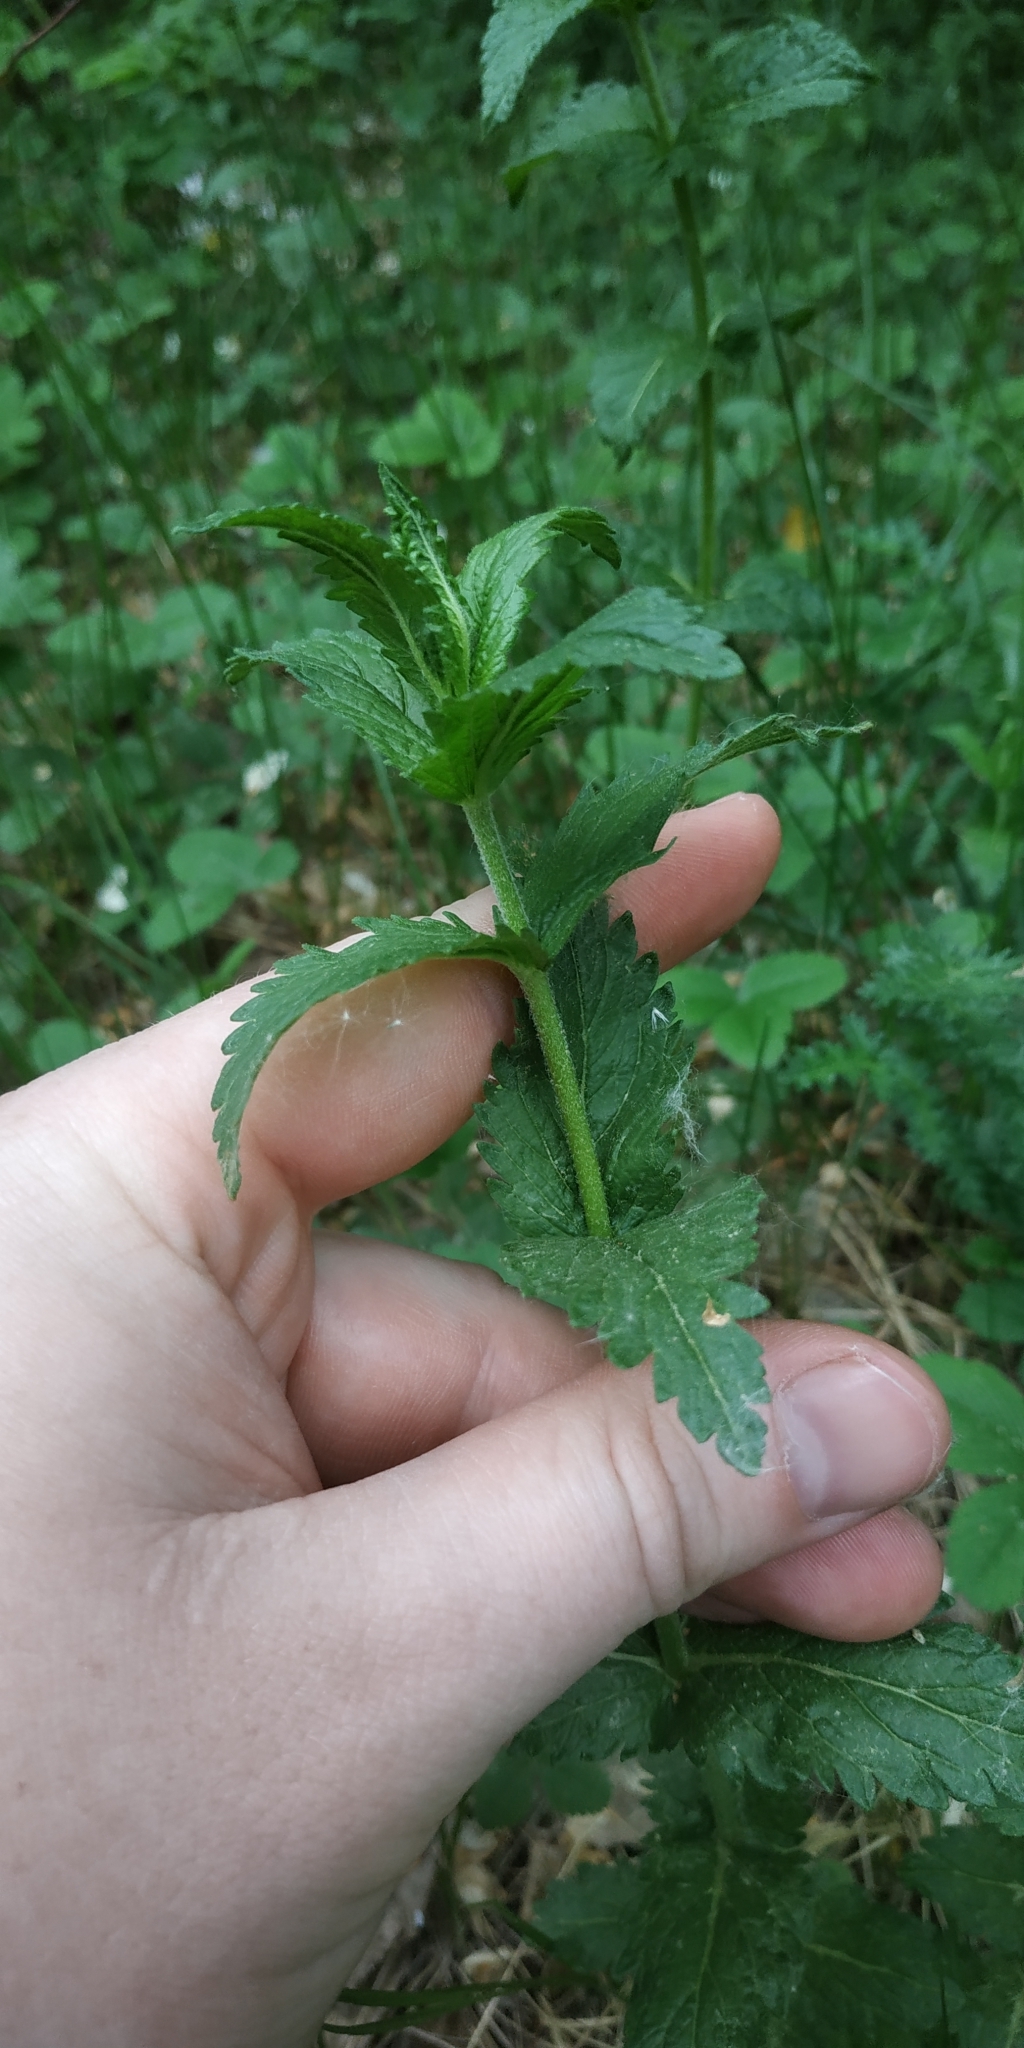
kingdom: Plantae
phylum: Tracheophyta
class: Magnoliopsida
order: Lamiales
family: Plantaginaceae
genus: Veronica
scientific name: Veronica teucrium
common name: Large speedwell
